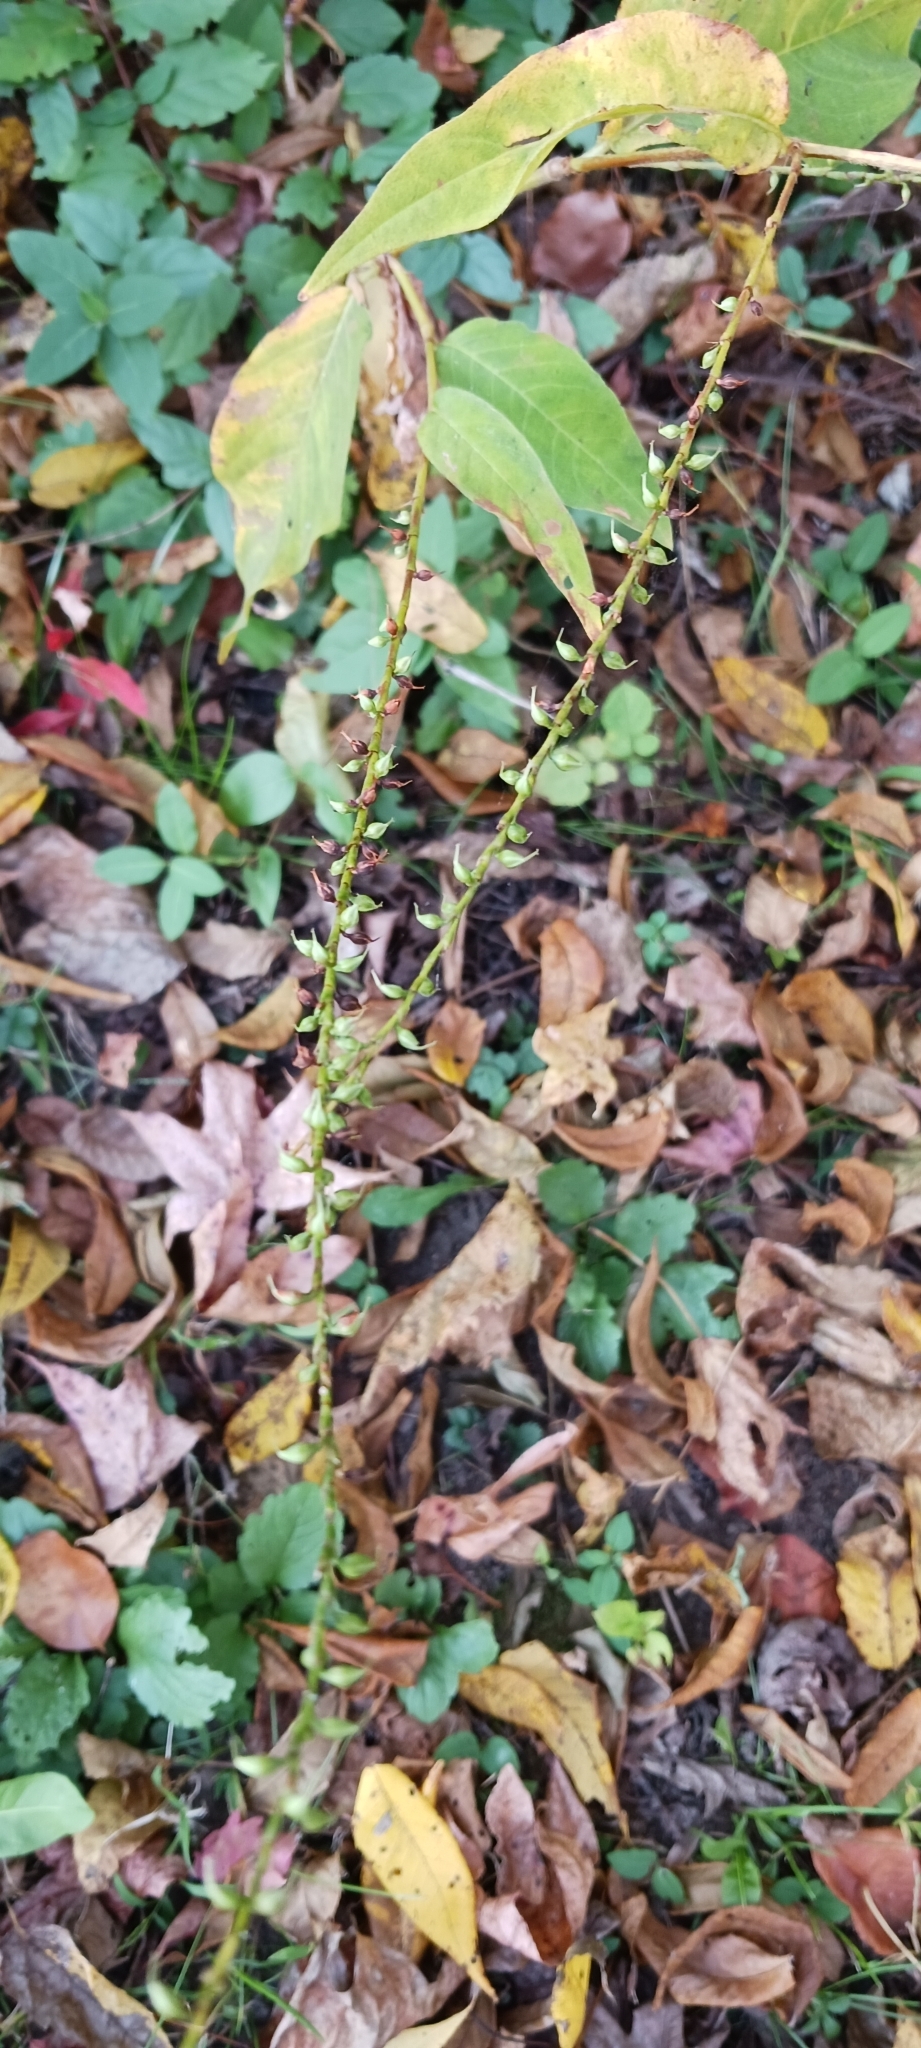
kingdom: Plantae
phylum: Tracheophyta
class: Magnoliopsida
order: Caryophyllales
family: Polygonaceae
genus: Persicaria
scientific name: Persicaria virginiana
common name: Jumpseed
